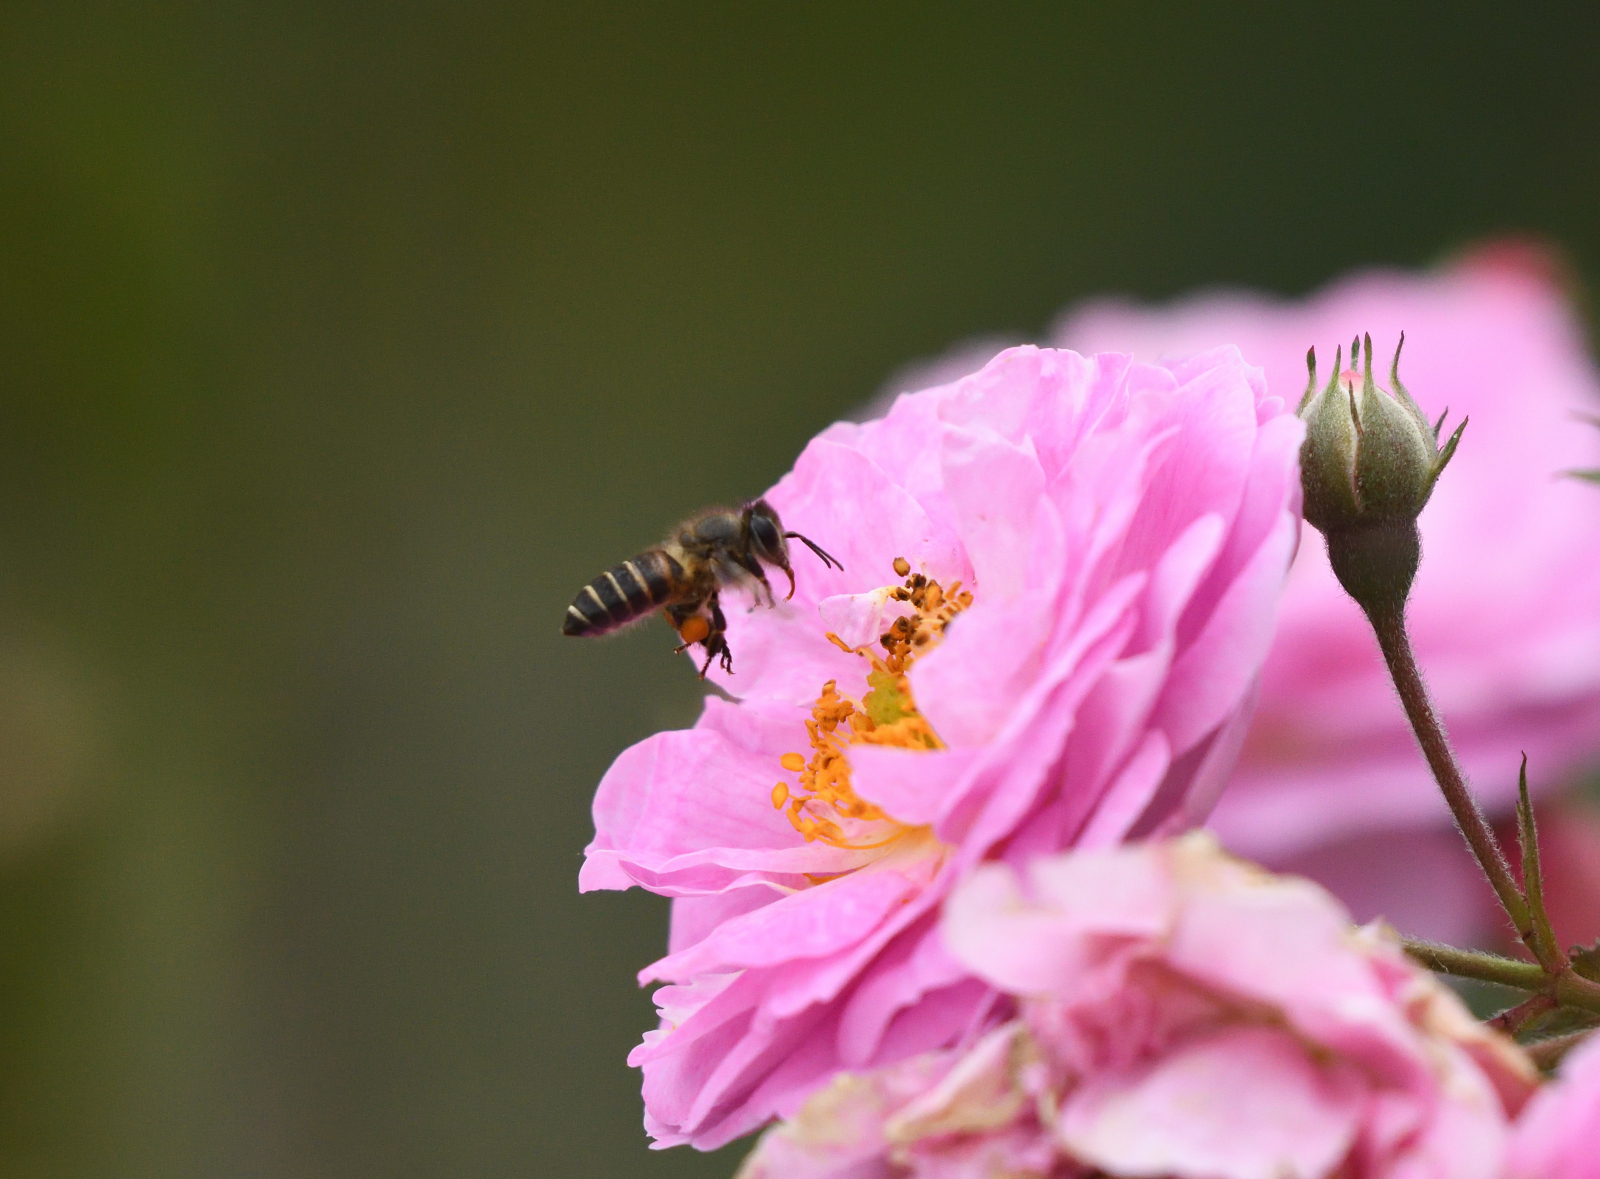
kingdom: Animalia
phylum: Arthropoda
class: Insecta
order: Hymenoptera
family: Apidae
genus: Apis
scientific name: Apis cerana
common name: Honey bee
